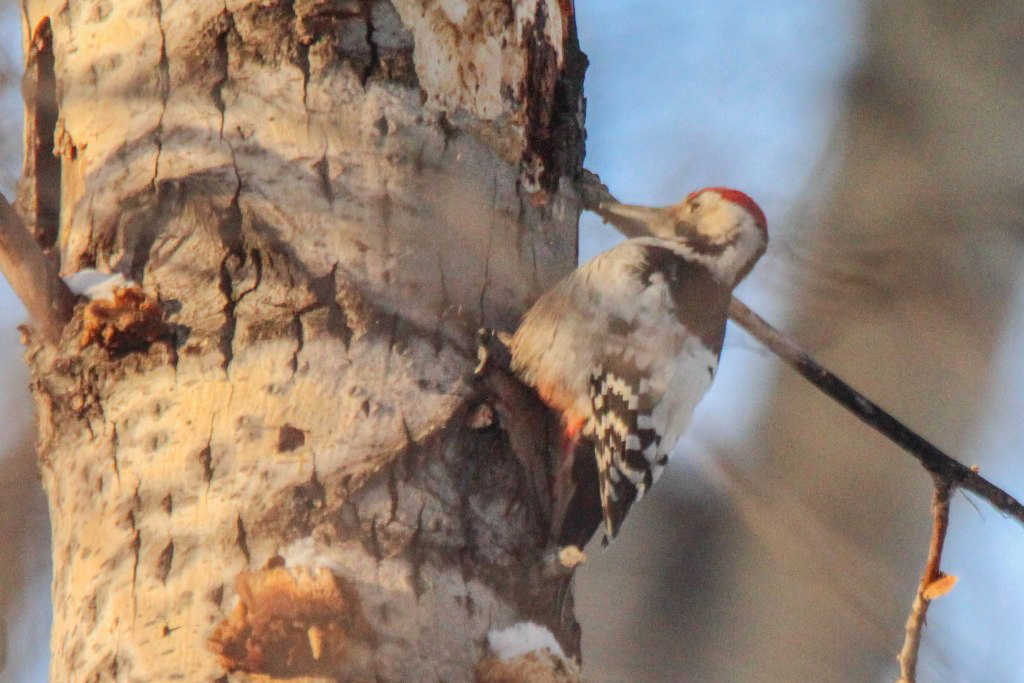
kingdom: Animalia
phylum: Chordata
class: Aves
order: Piciformes
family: Picidae
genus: Dendrocopos
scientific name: Dendrocopos leucotos
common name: White-backed woodpecker
